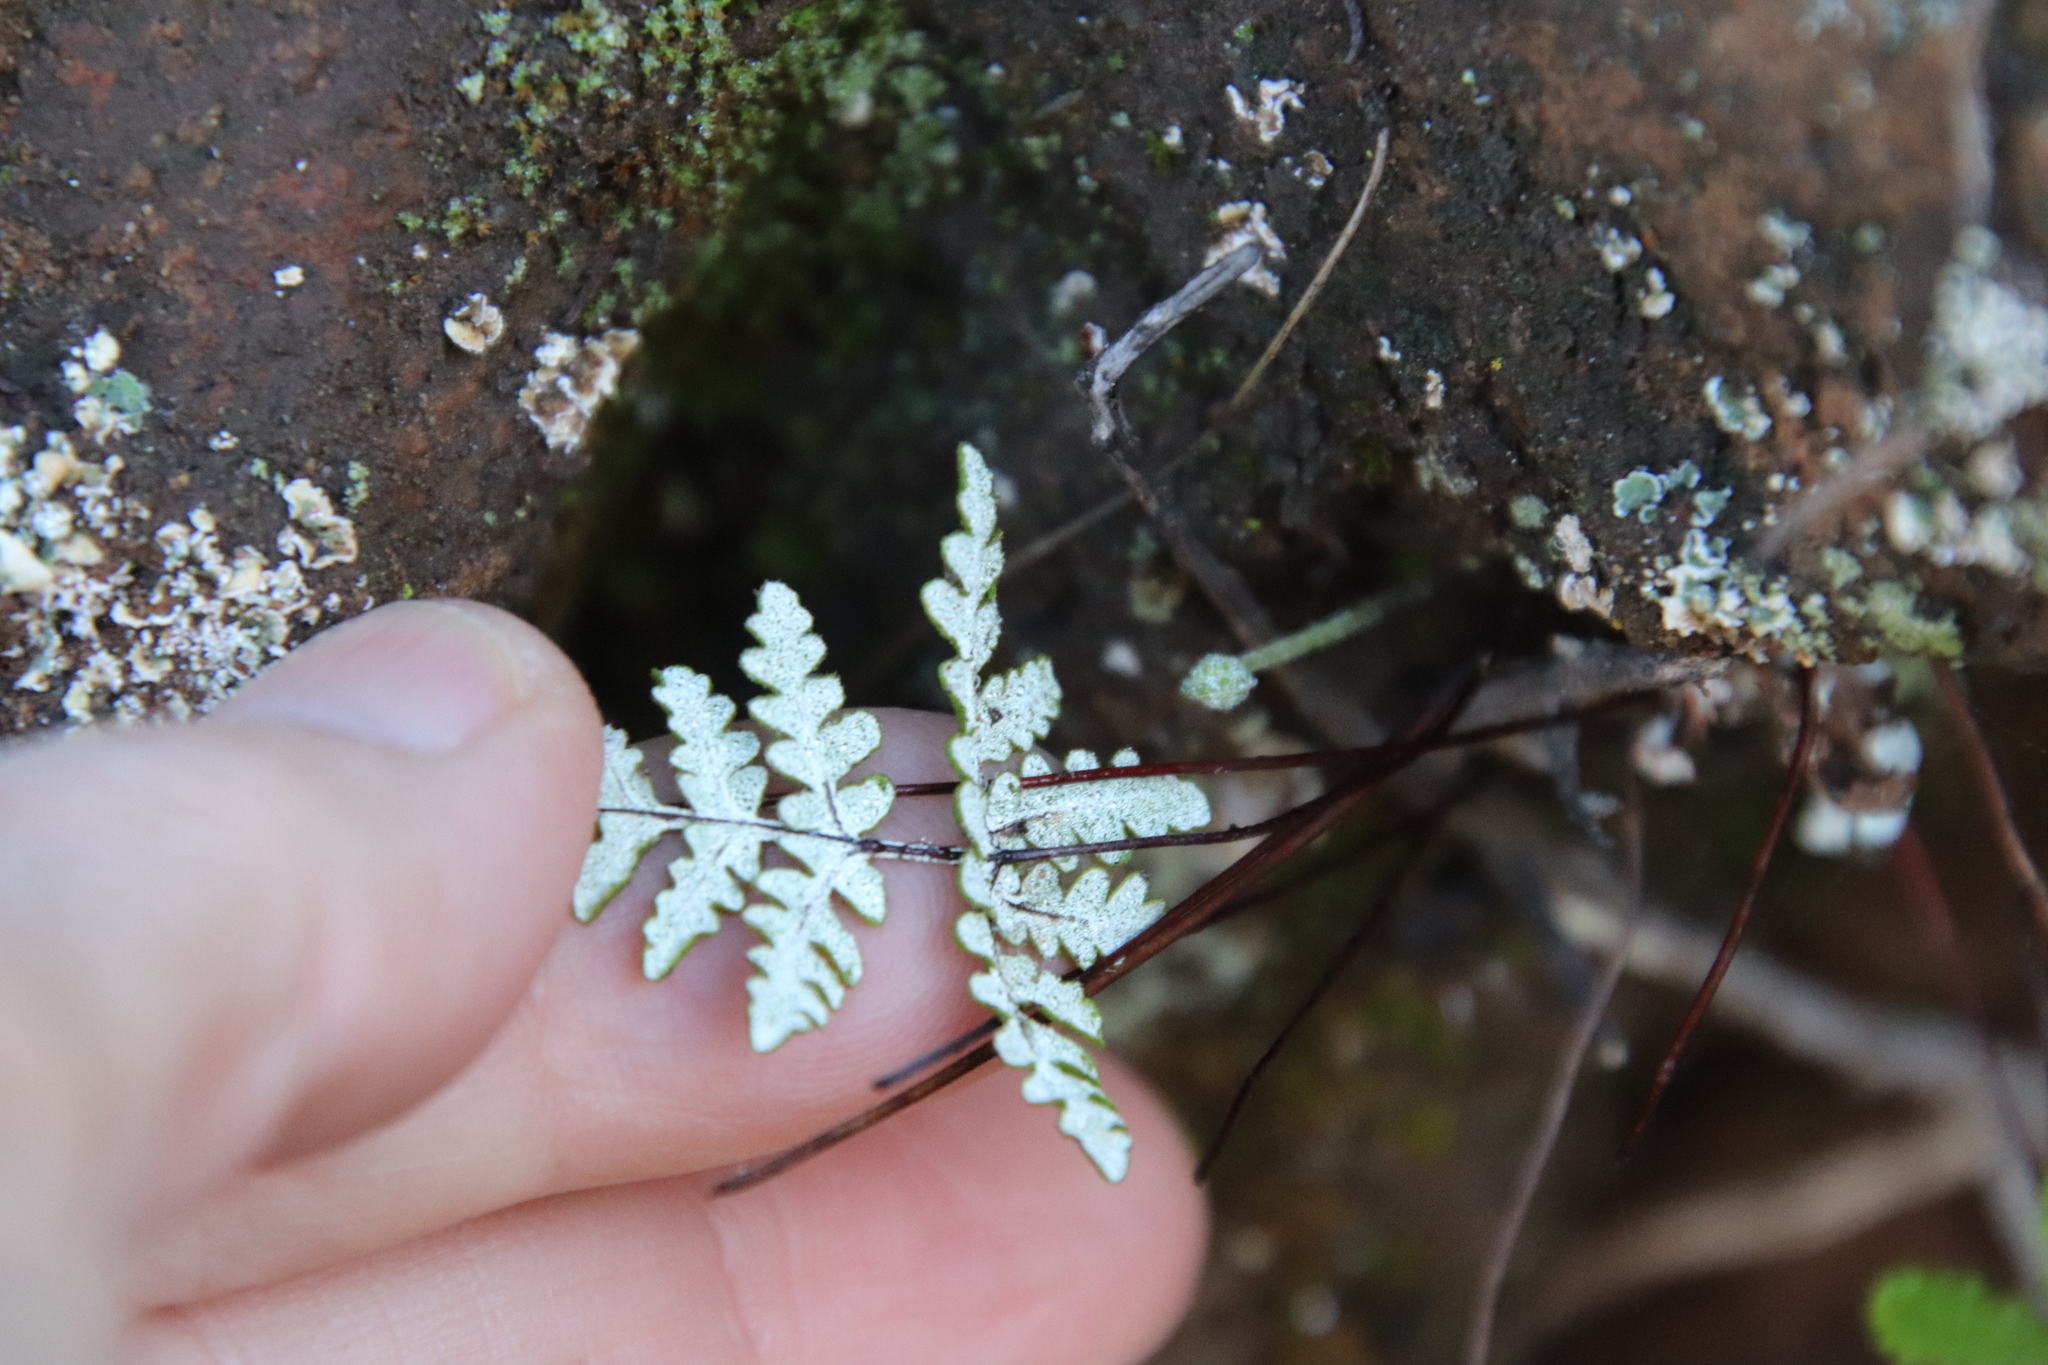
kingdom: Plantae
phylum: Tracheophyta
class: Polypodiopsida
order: Polypodiales
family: Pteridaceae
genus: Pentagramma
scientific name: Pentagramma glanduloviscida
